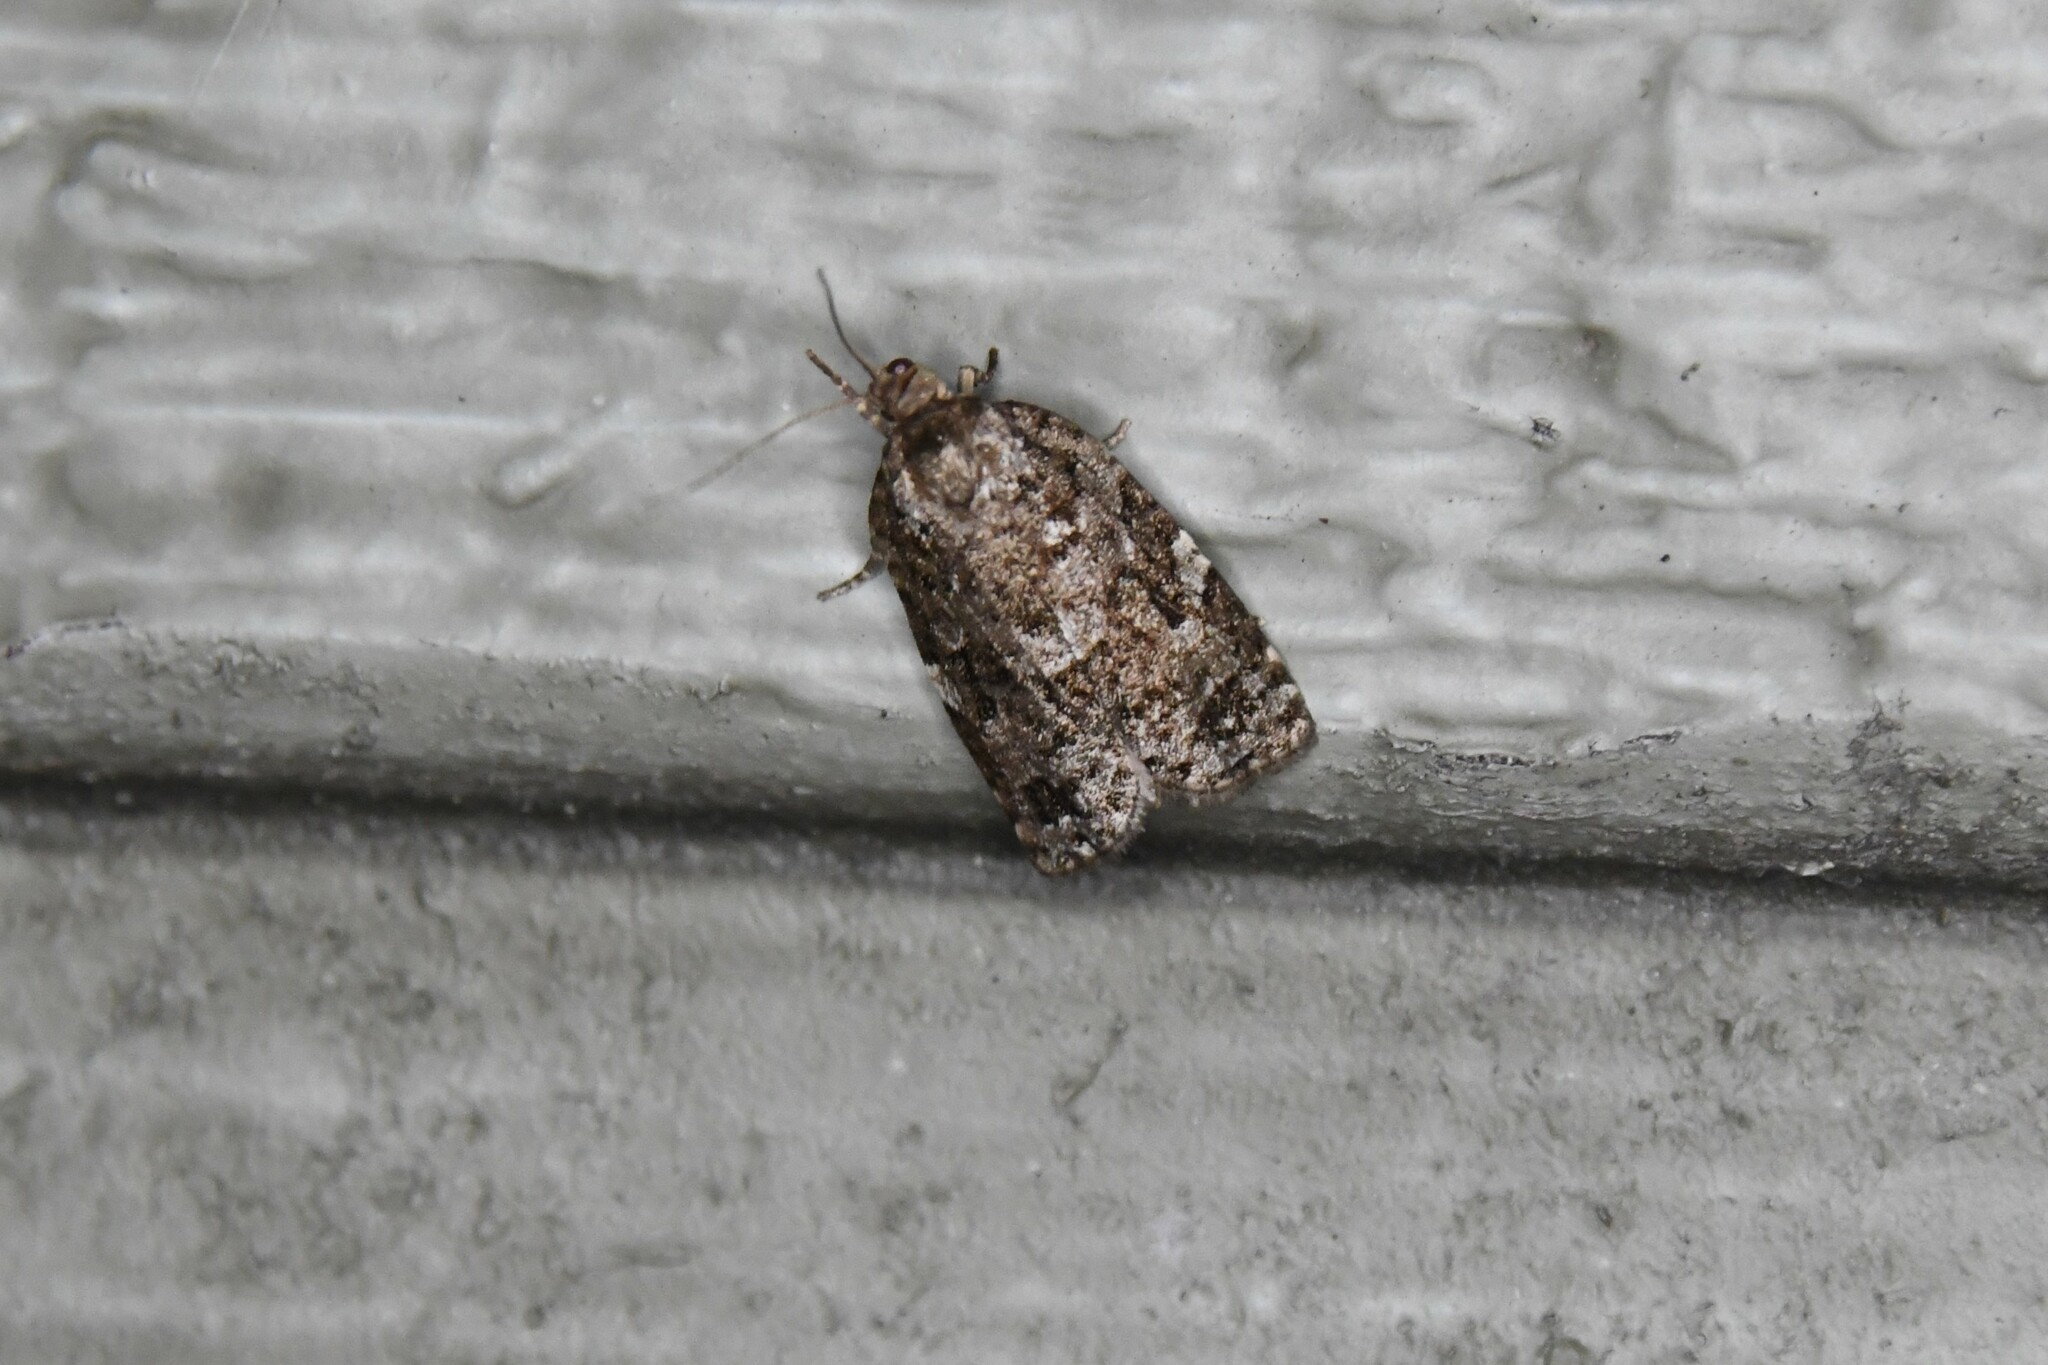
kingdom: Animalia
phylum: Arthropoda
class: Insecta
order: Lepidoptera
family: Tortricidae
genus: Choristoneura
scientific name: Choristoneura fumiferana
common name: Spruce budworm
